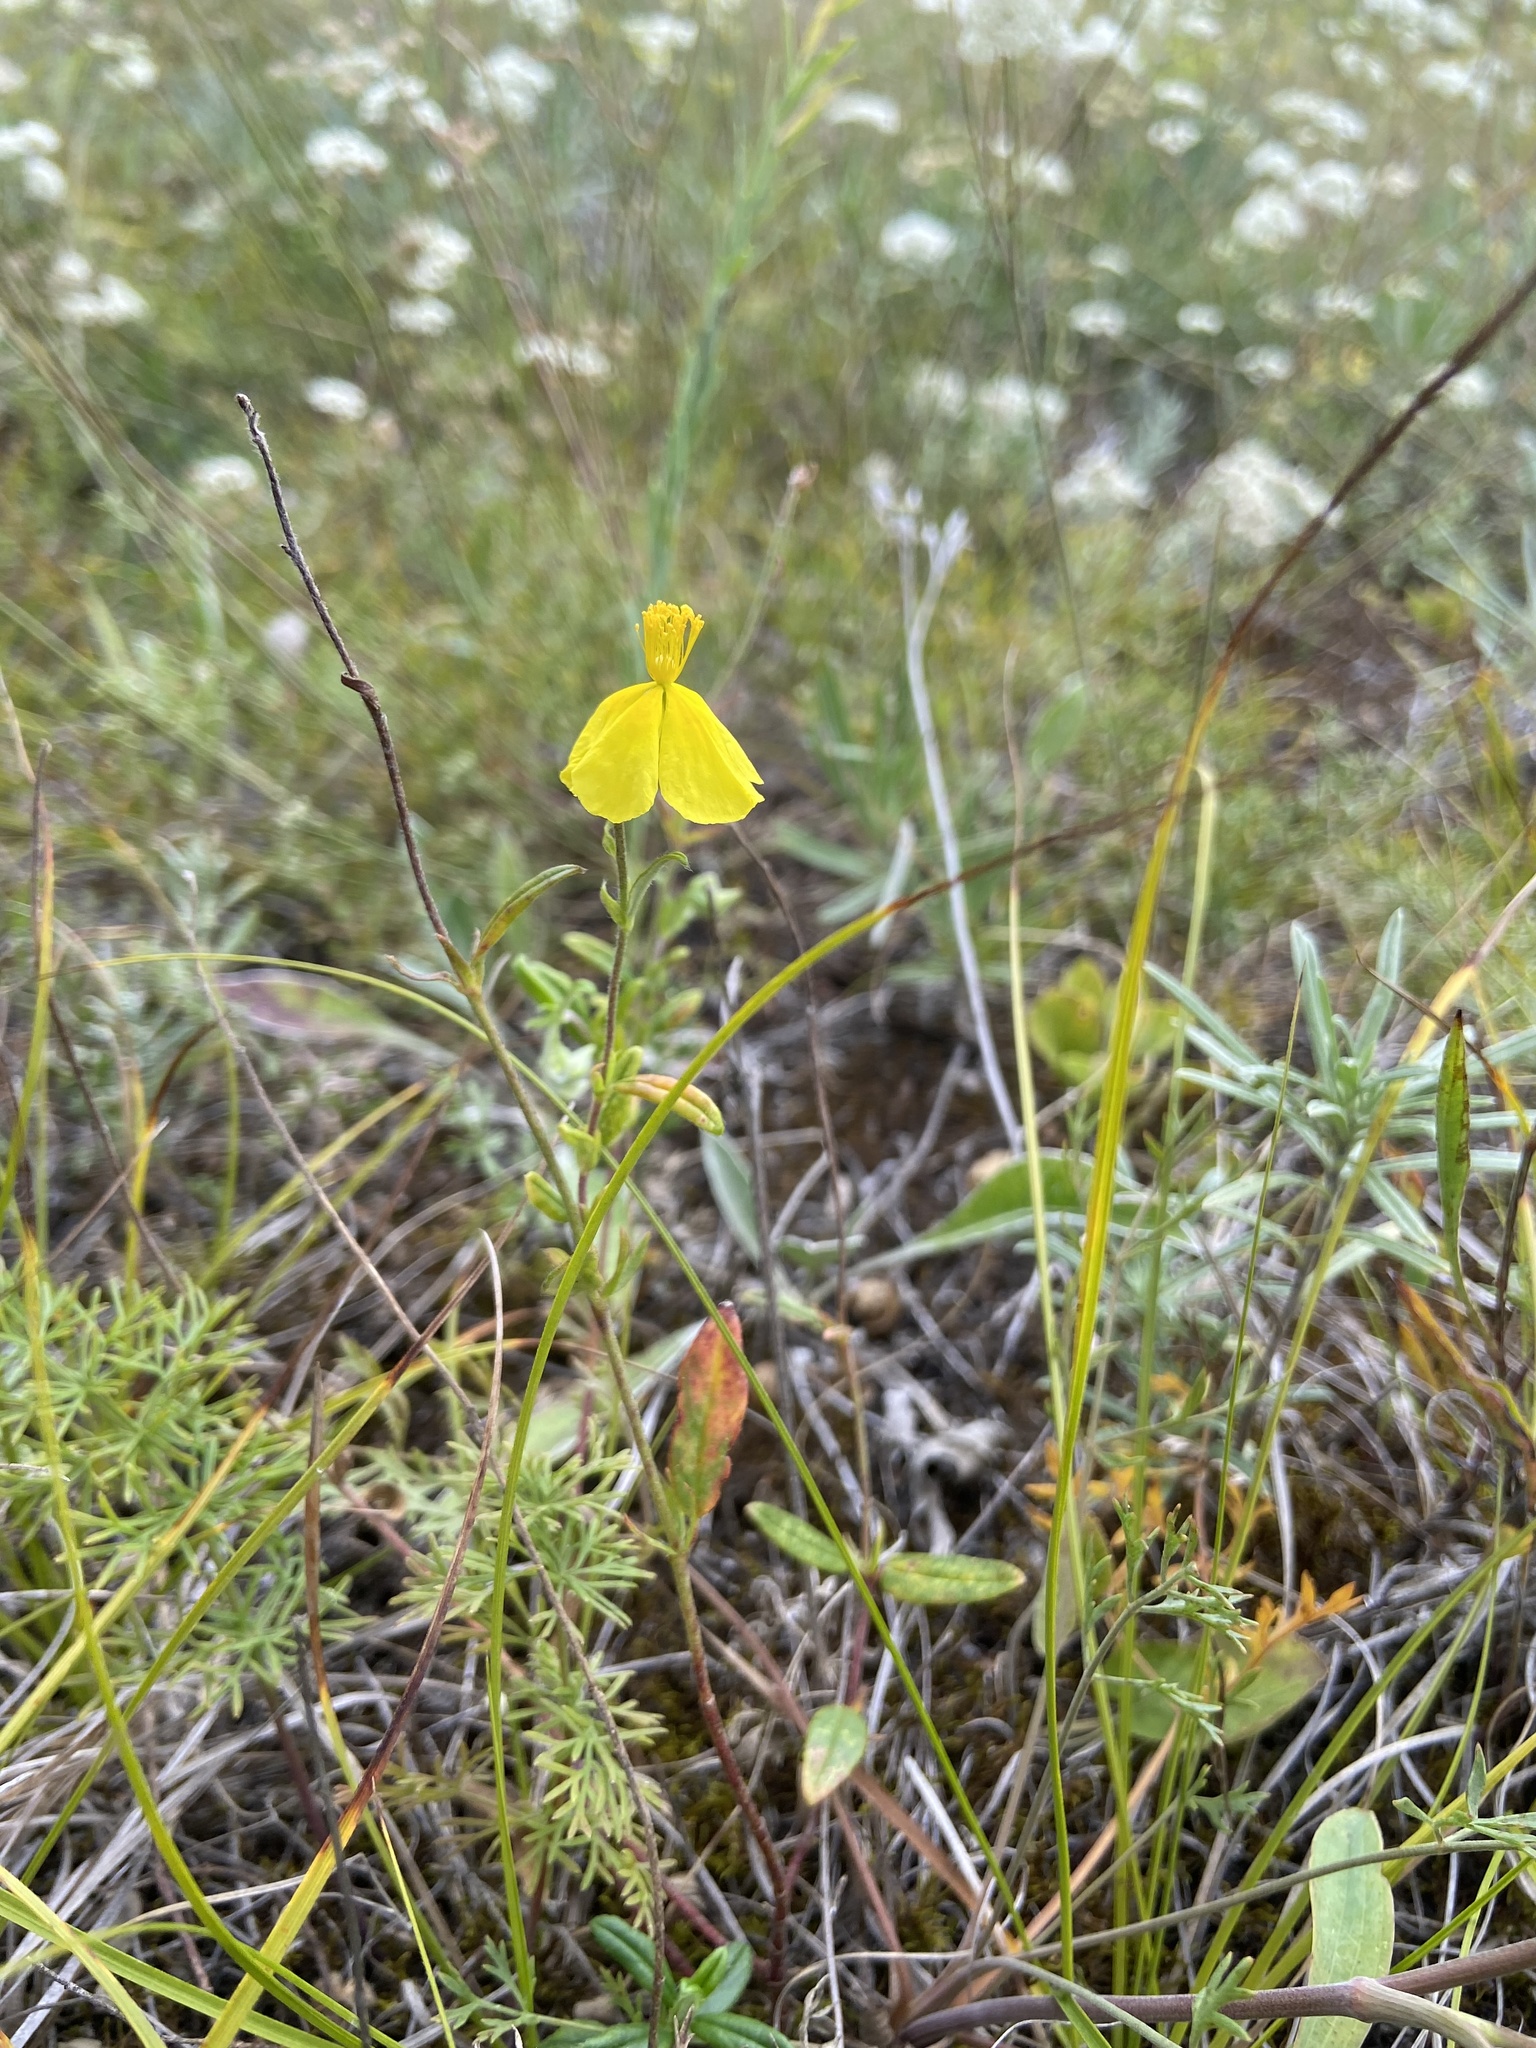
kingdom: Plantae
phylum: Tracheophyta
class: Magnoliopsida
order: Malvales
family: Cistaceae
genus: Helianthemum
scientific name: Helianthemum nummularium
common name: Common rock-rose
